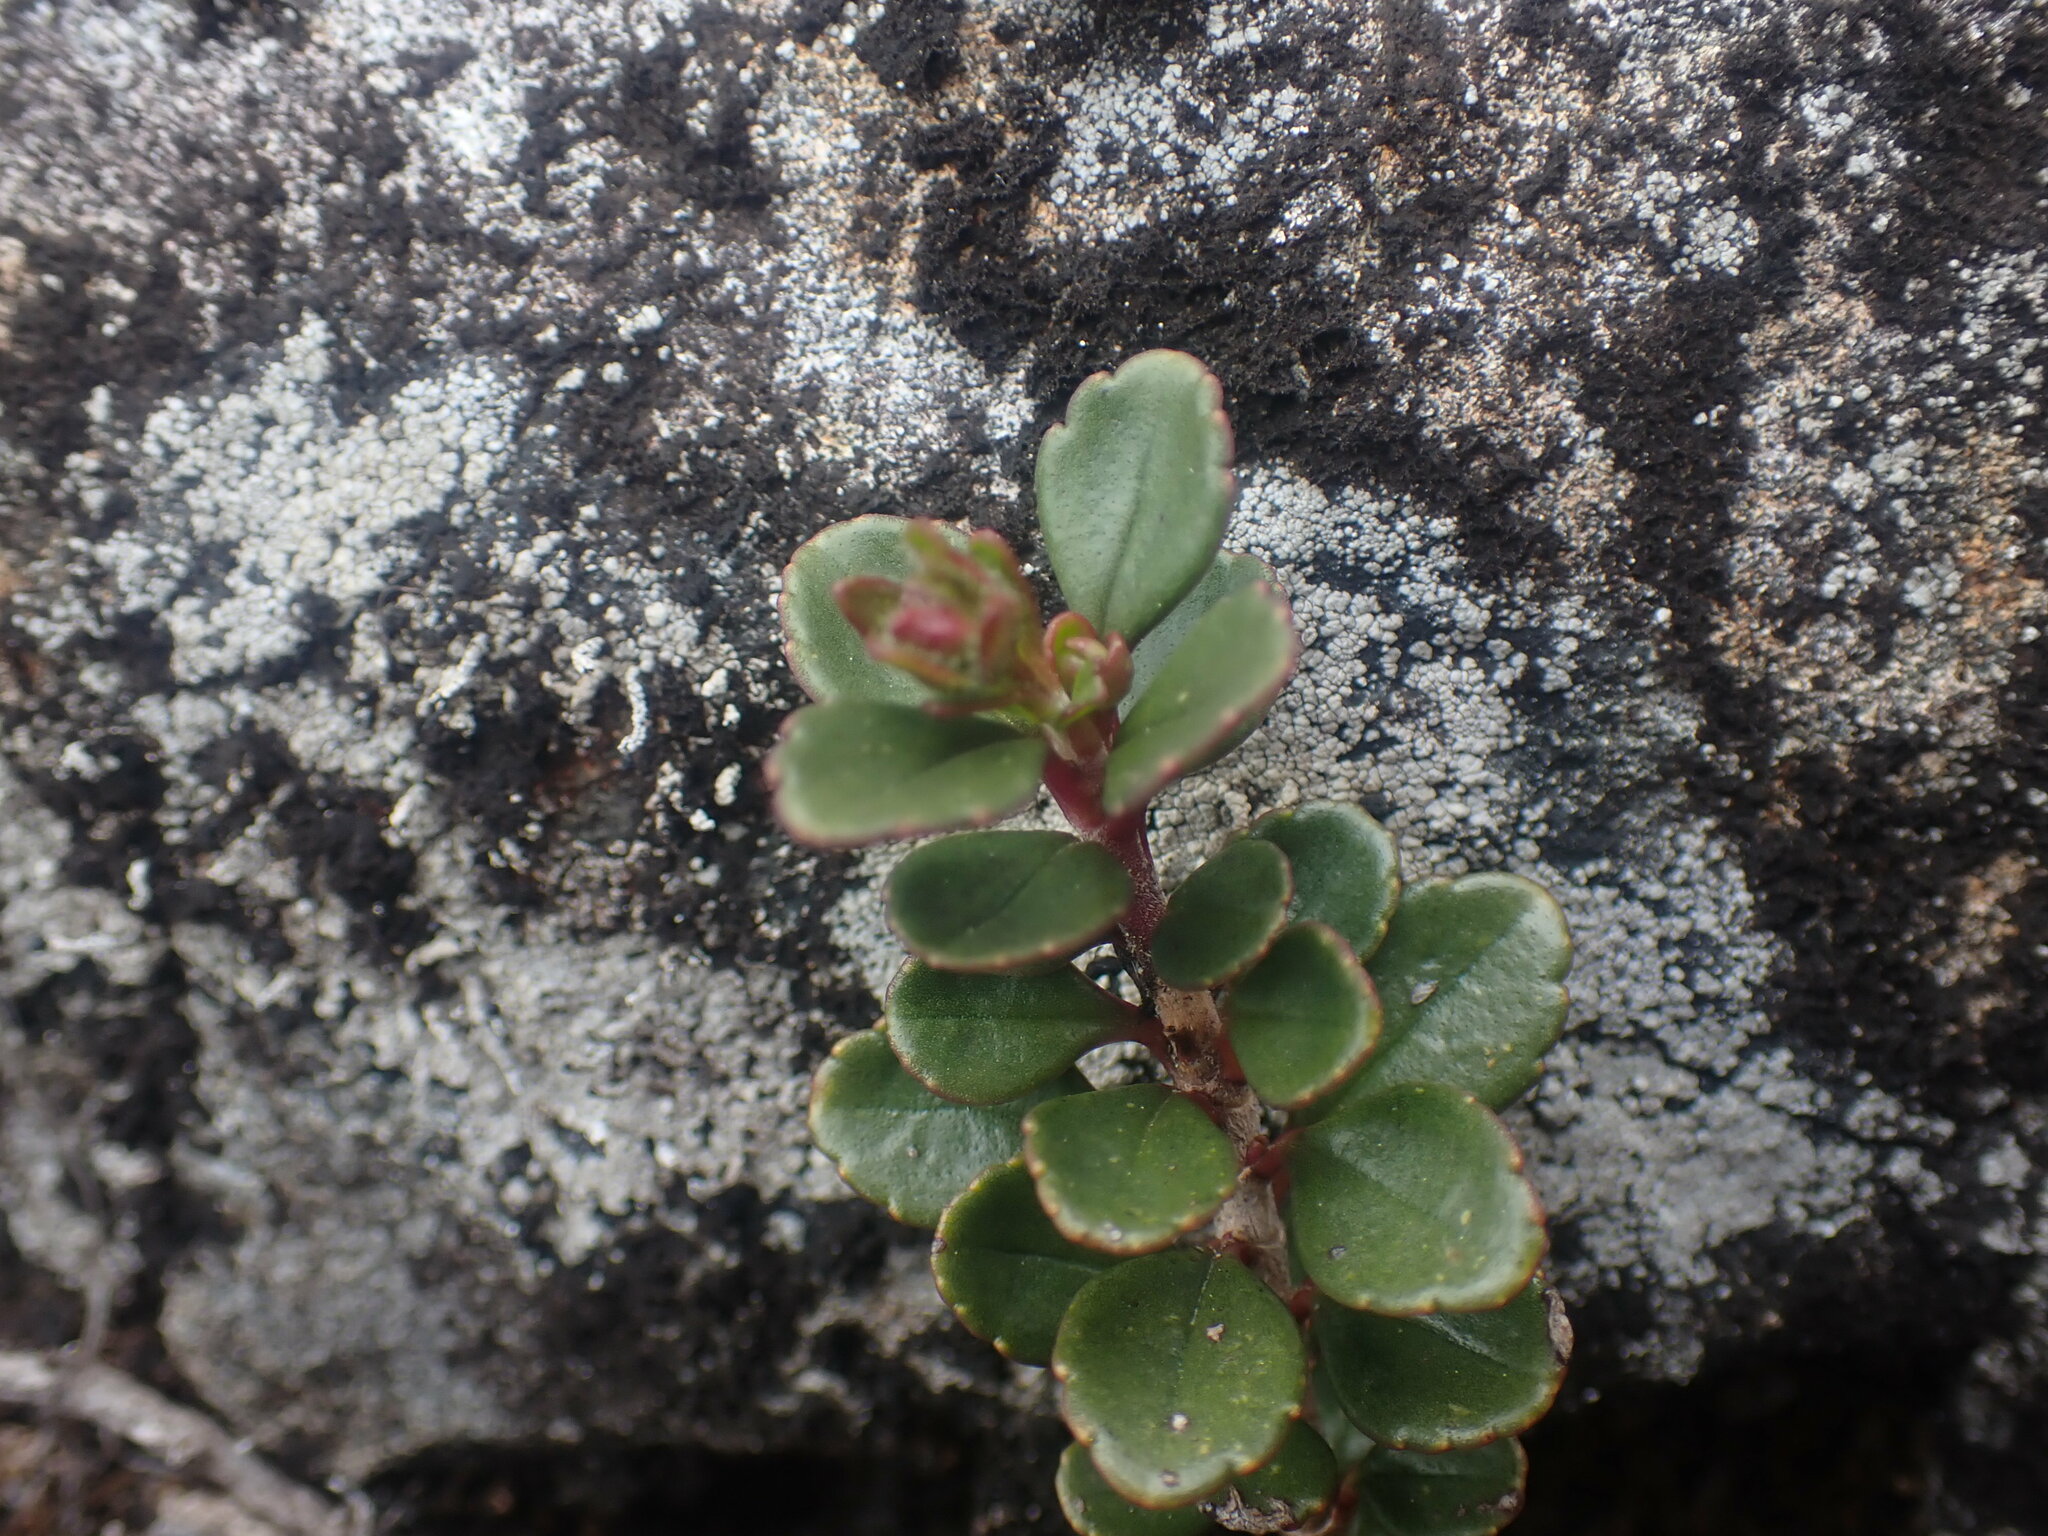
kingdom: Plantae
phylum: Tracheophyta
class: Magnoliopsida
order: Lamiales
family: Plantaginaceae
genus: Penstemon
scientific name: Penstemon davidsonii
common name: Davidson's penstemon
